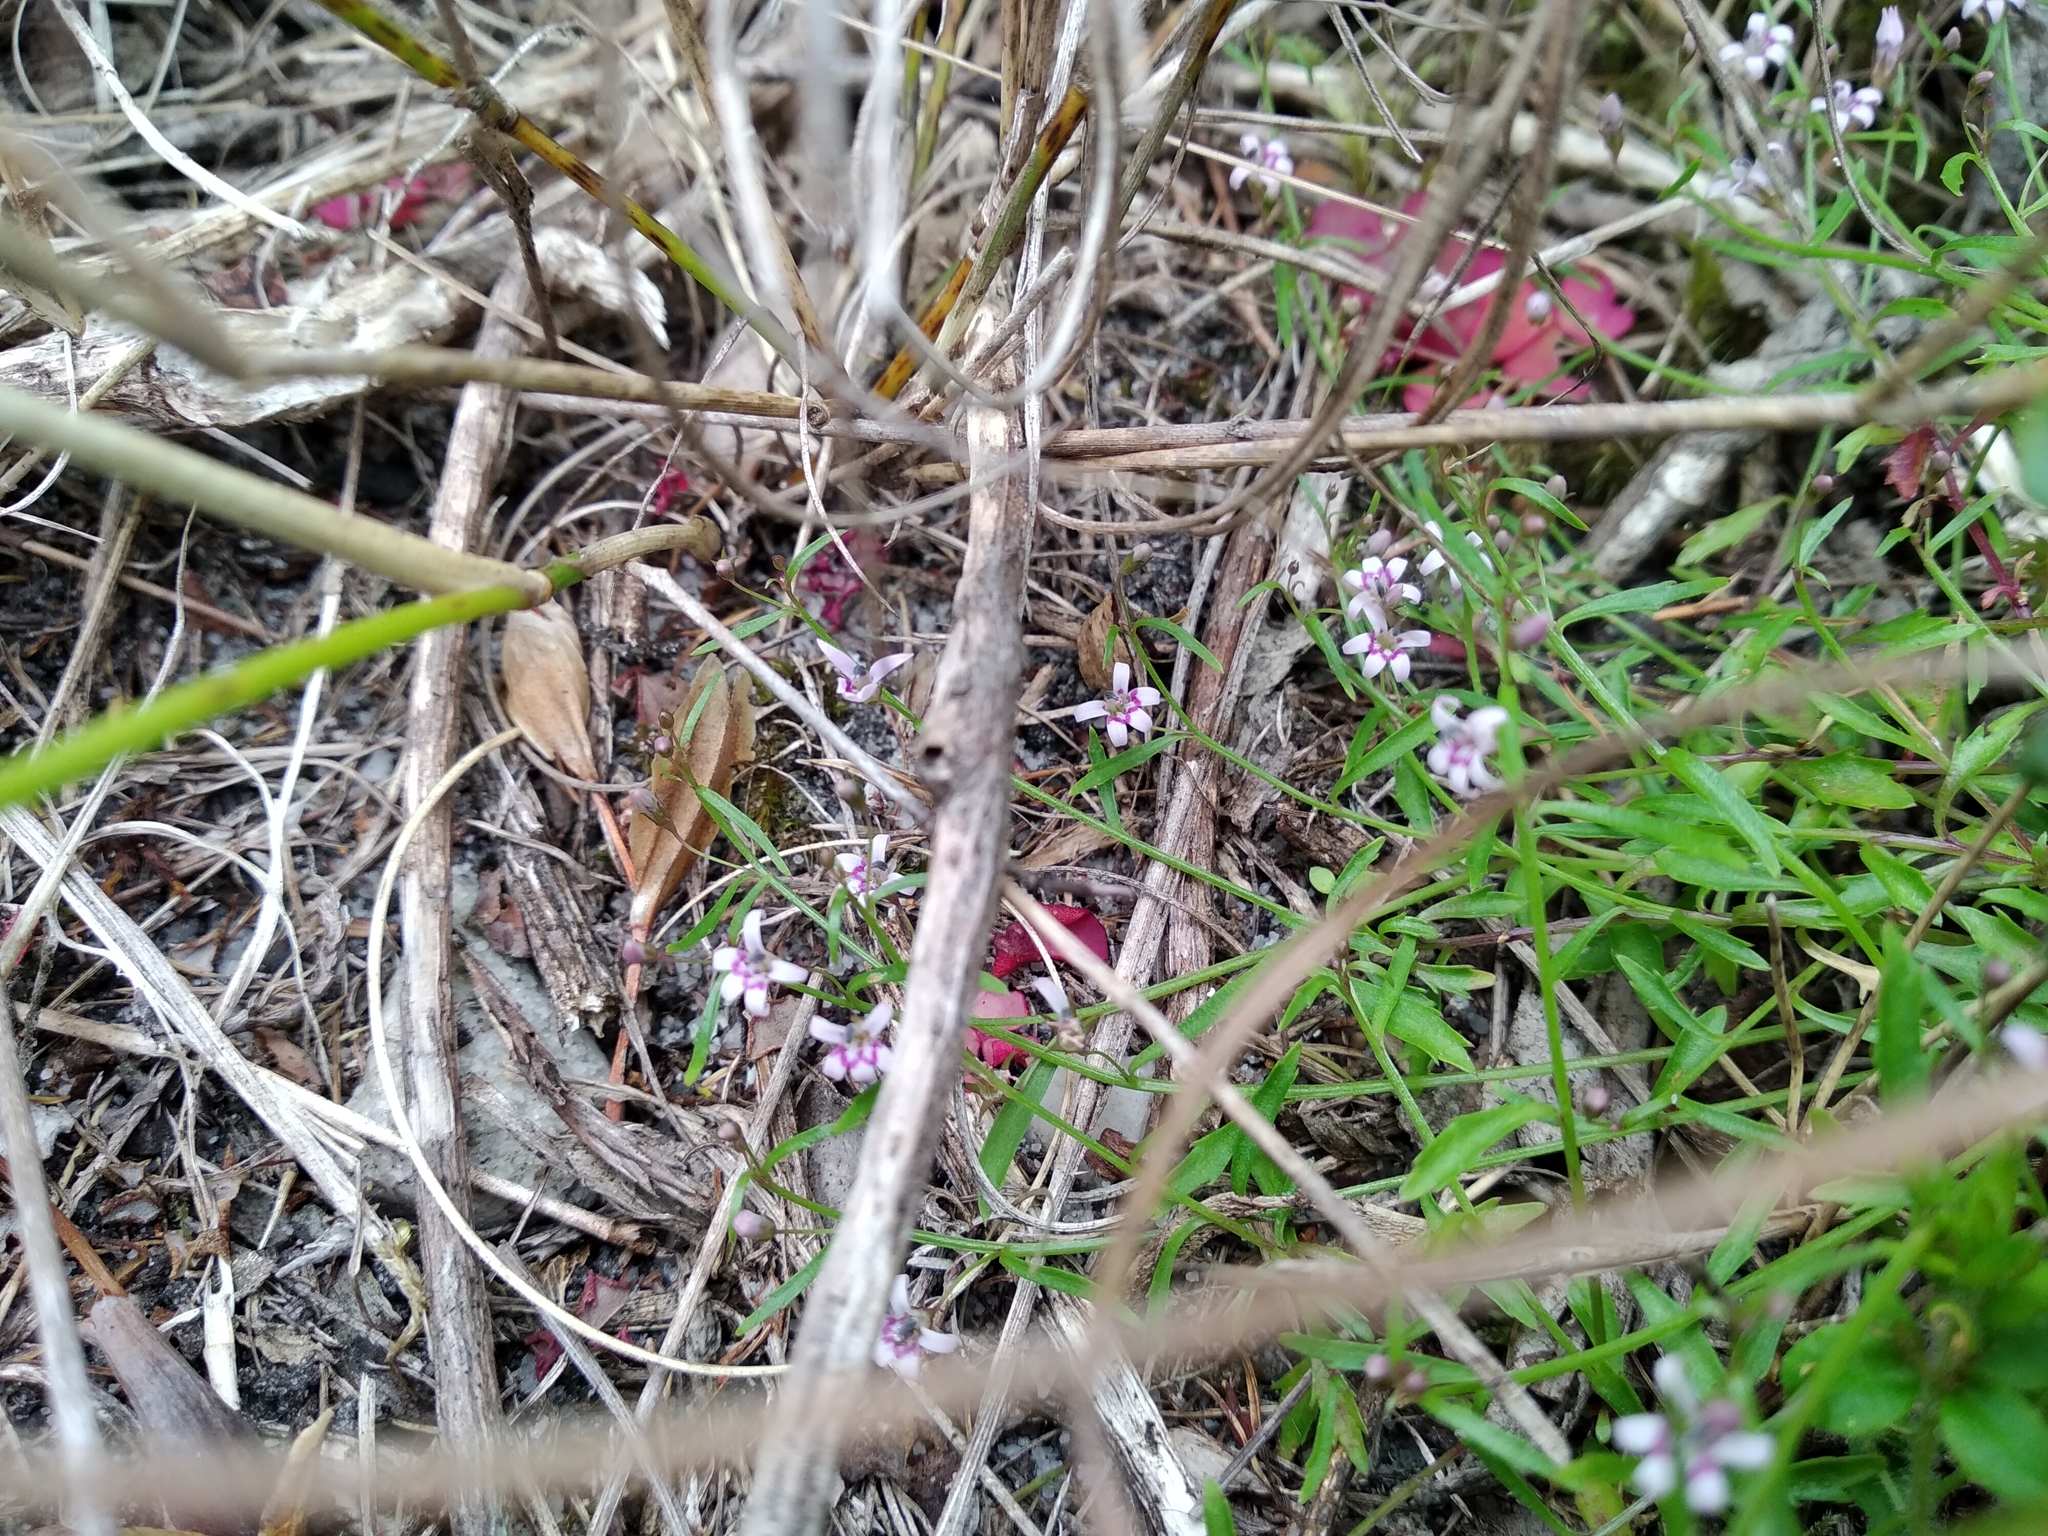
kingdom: Plantae
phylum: Tracheophyta
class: Magnoliopsida
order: Asterales
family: Campanulaceae
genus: Lobelia
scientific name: Lobelia eckloniana
